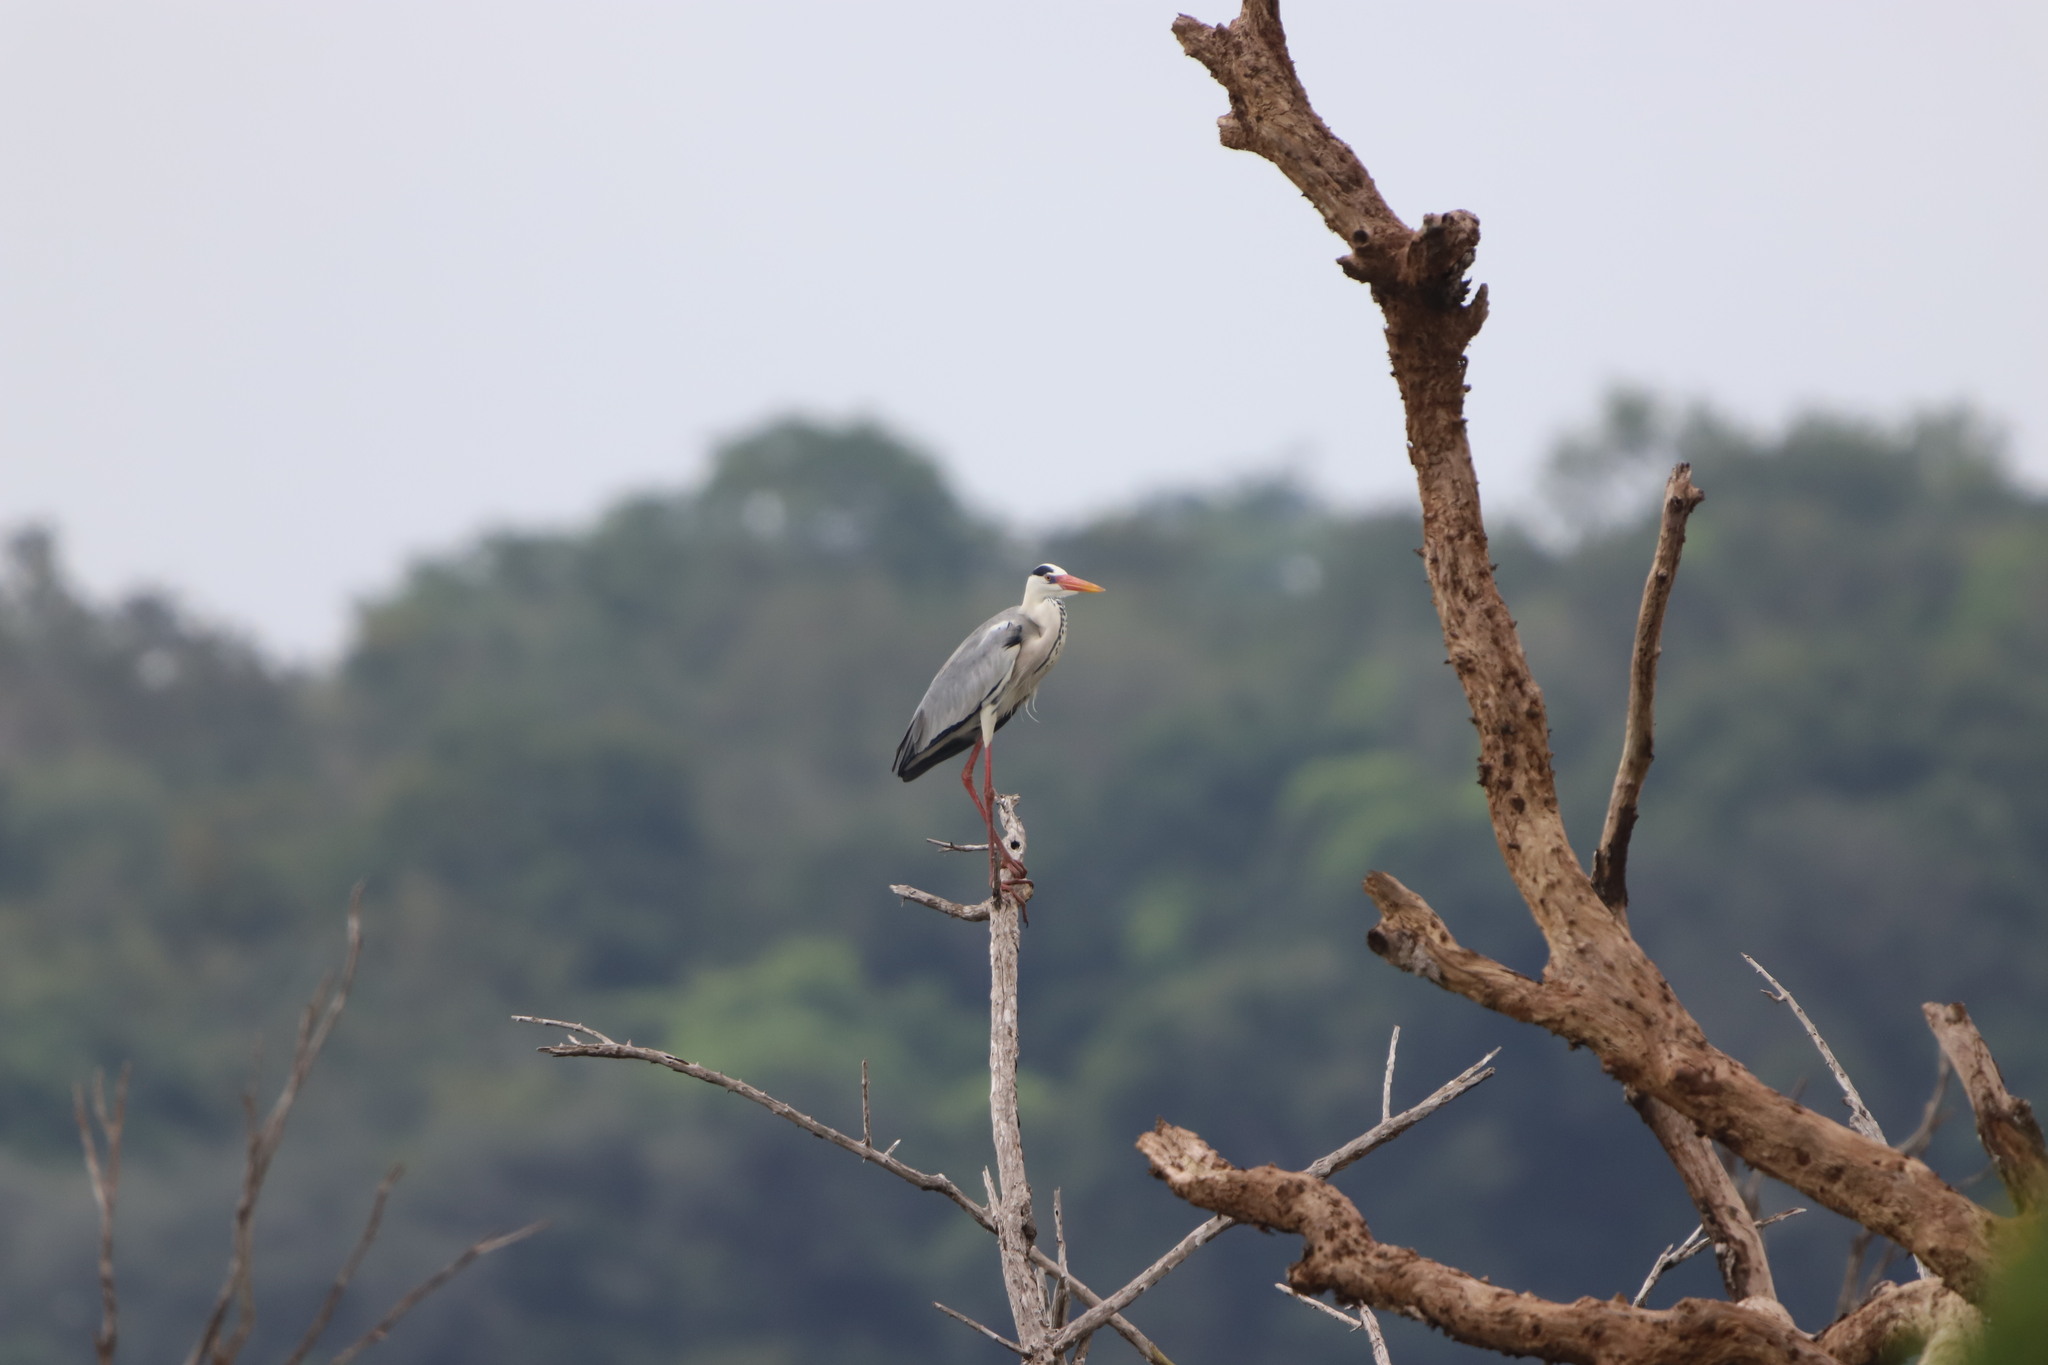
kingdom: Animalia
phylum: Chordata
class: Aves
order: Pelecaniformes
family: Ardeidae
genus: Ardea
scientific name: Ardea cinerea
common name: Grey heron
